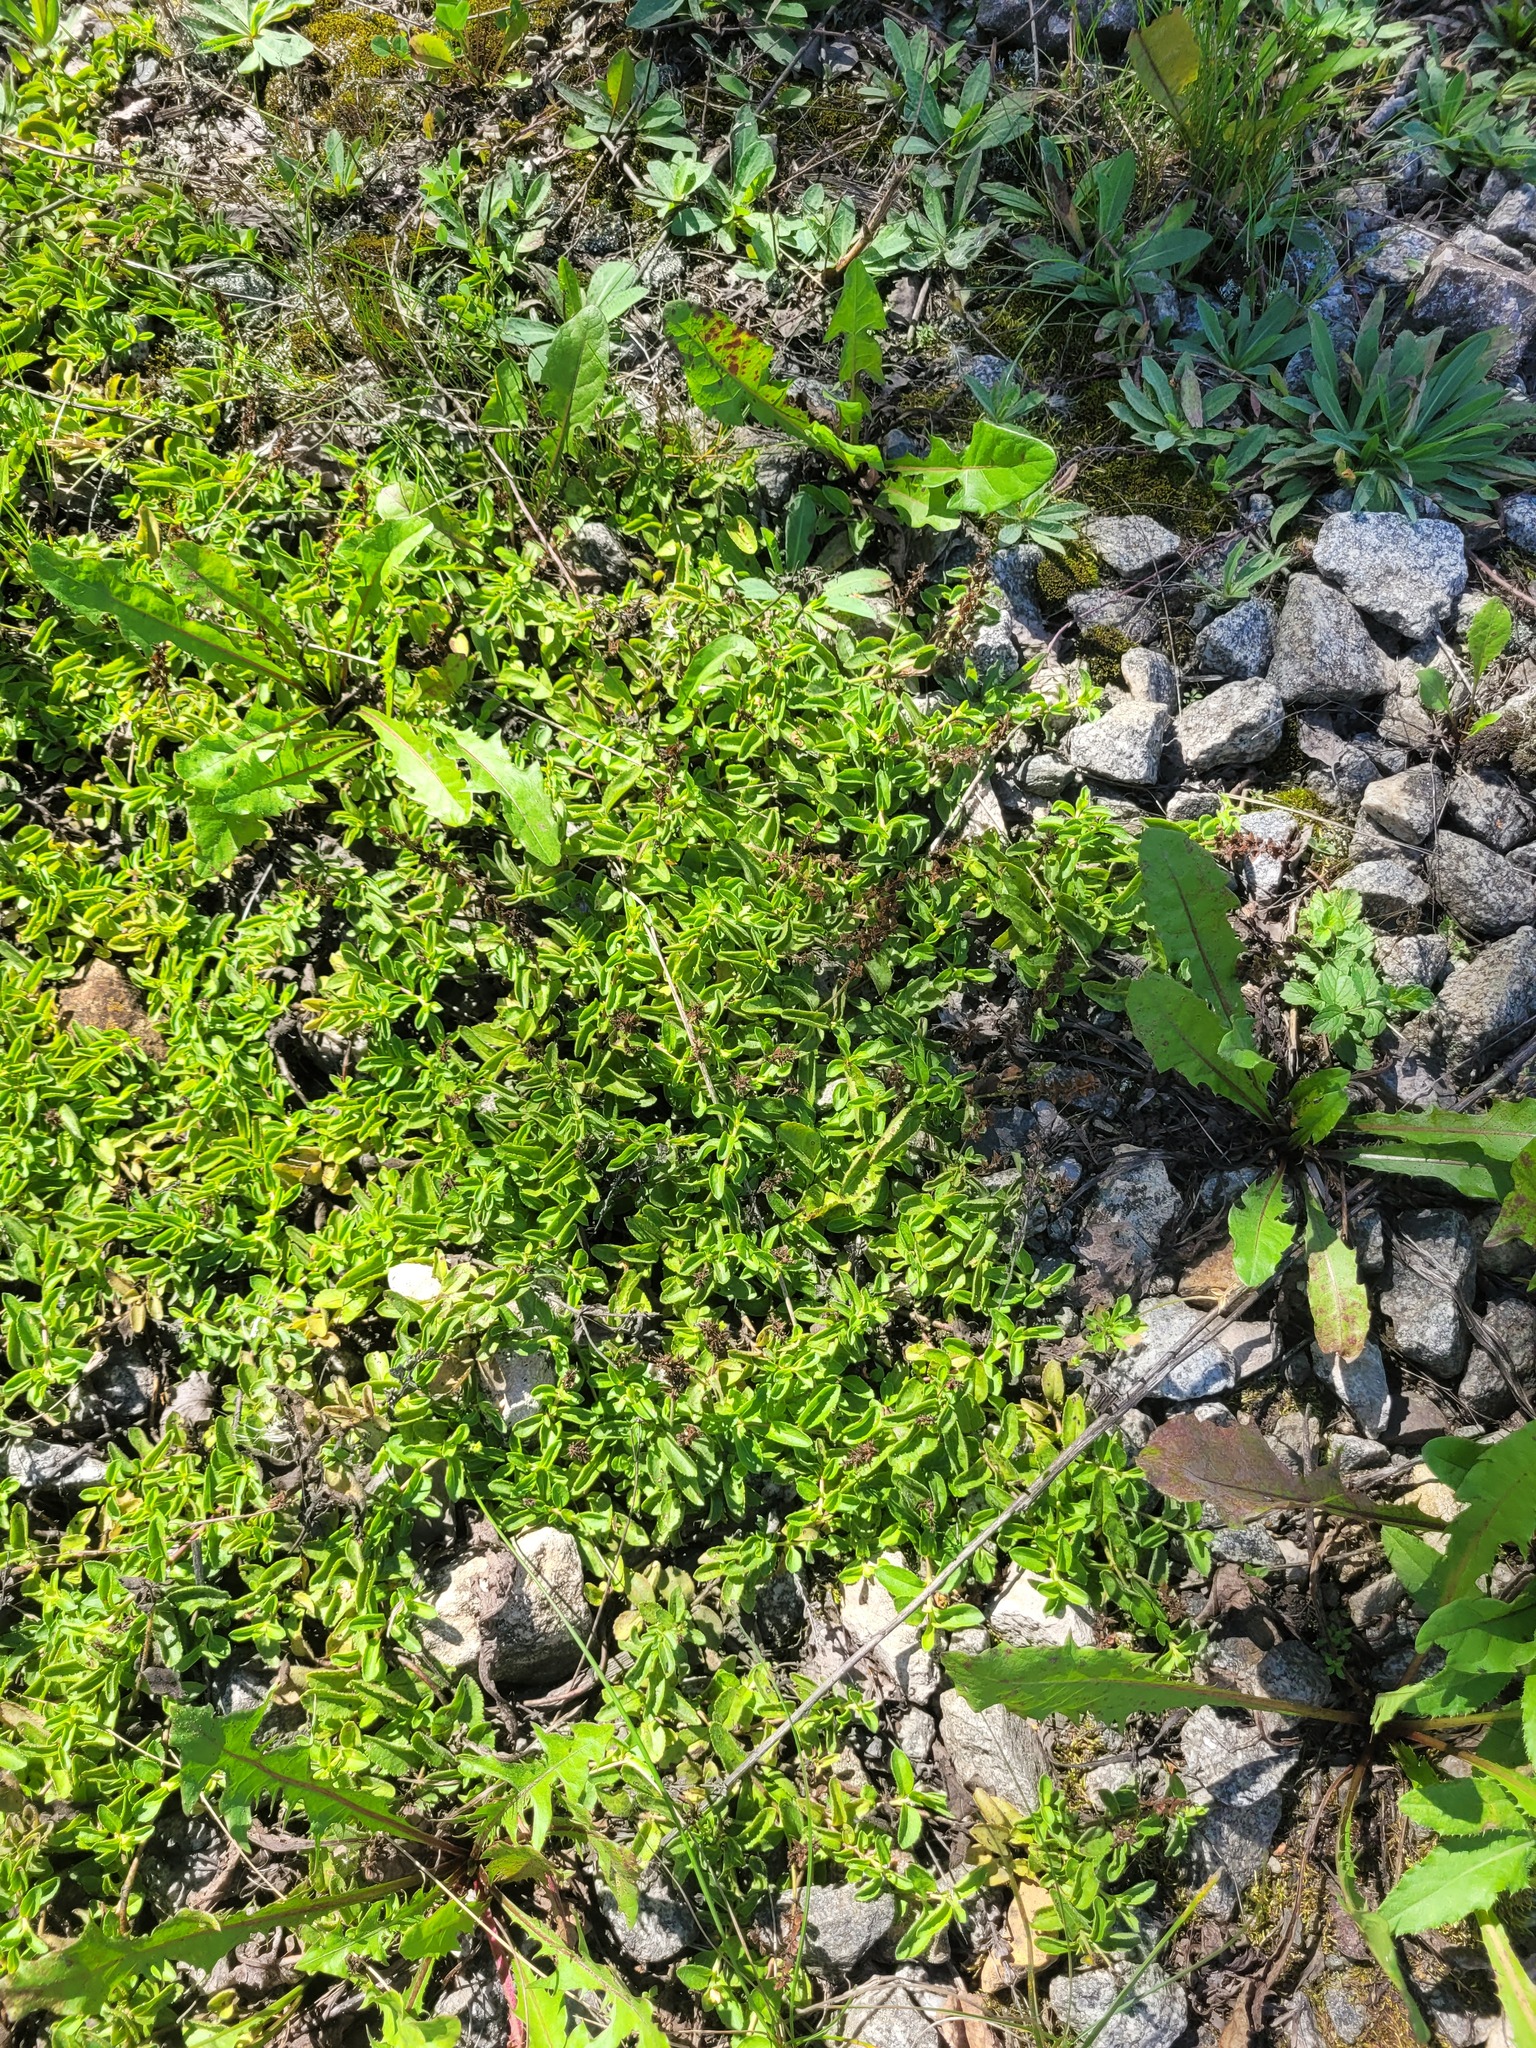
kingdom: Plantae
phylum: Tracheophyta
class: Magnoliopsida
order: Lamiales
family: Plantaginaceae
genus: Veronica
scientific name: Veronica officinalis
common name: Common speedwell
